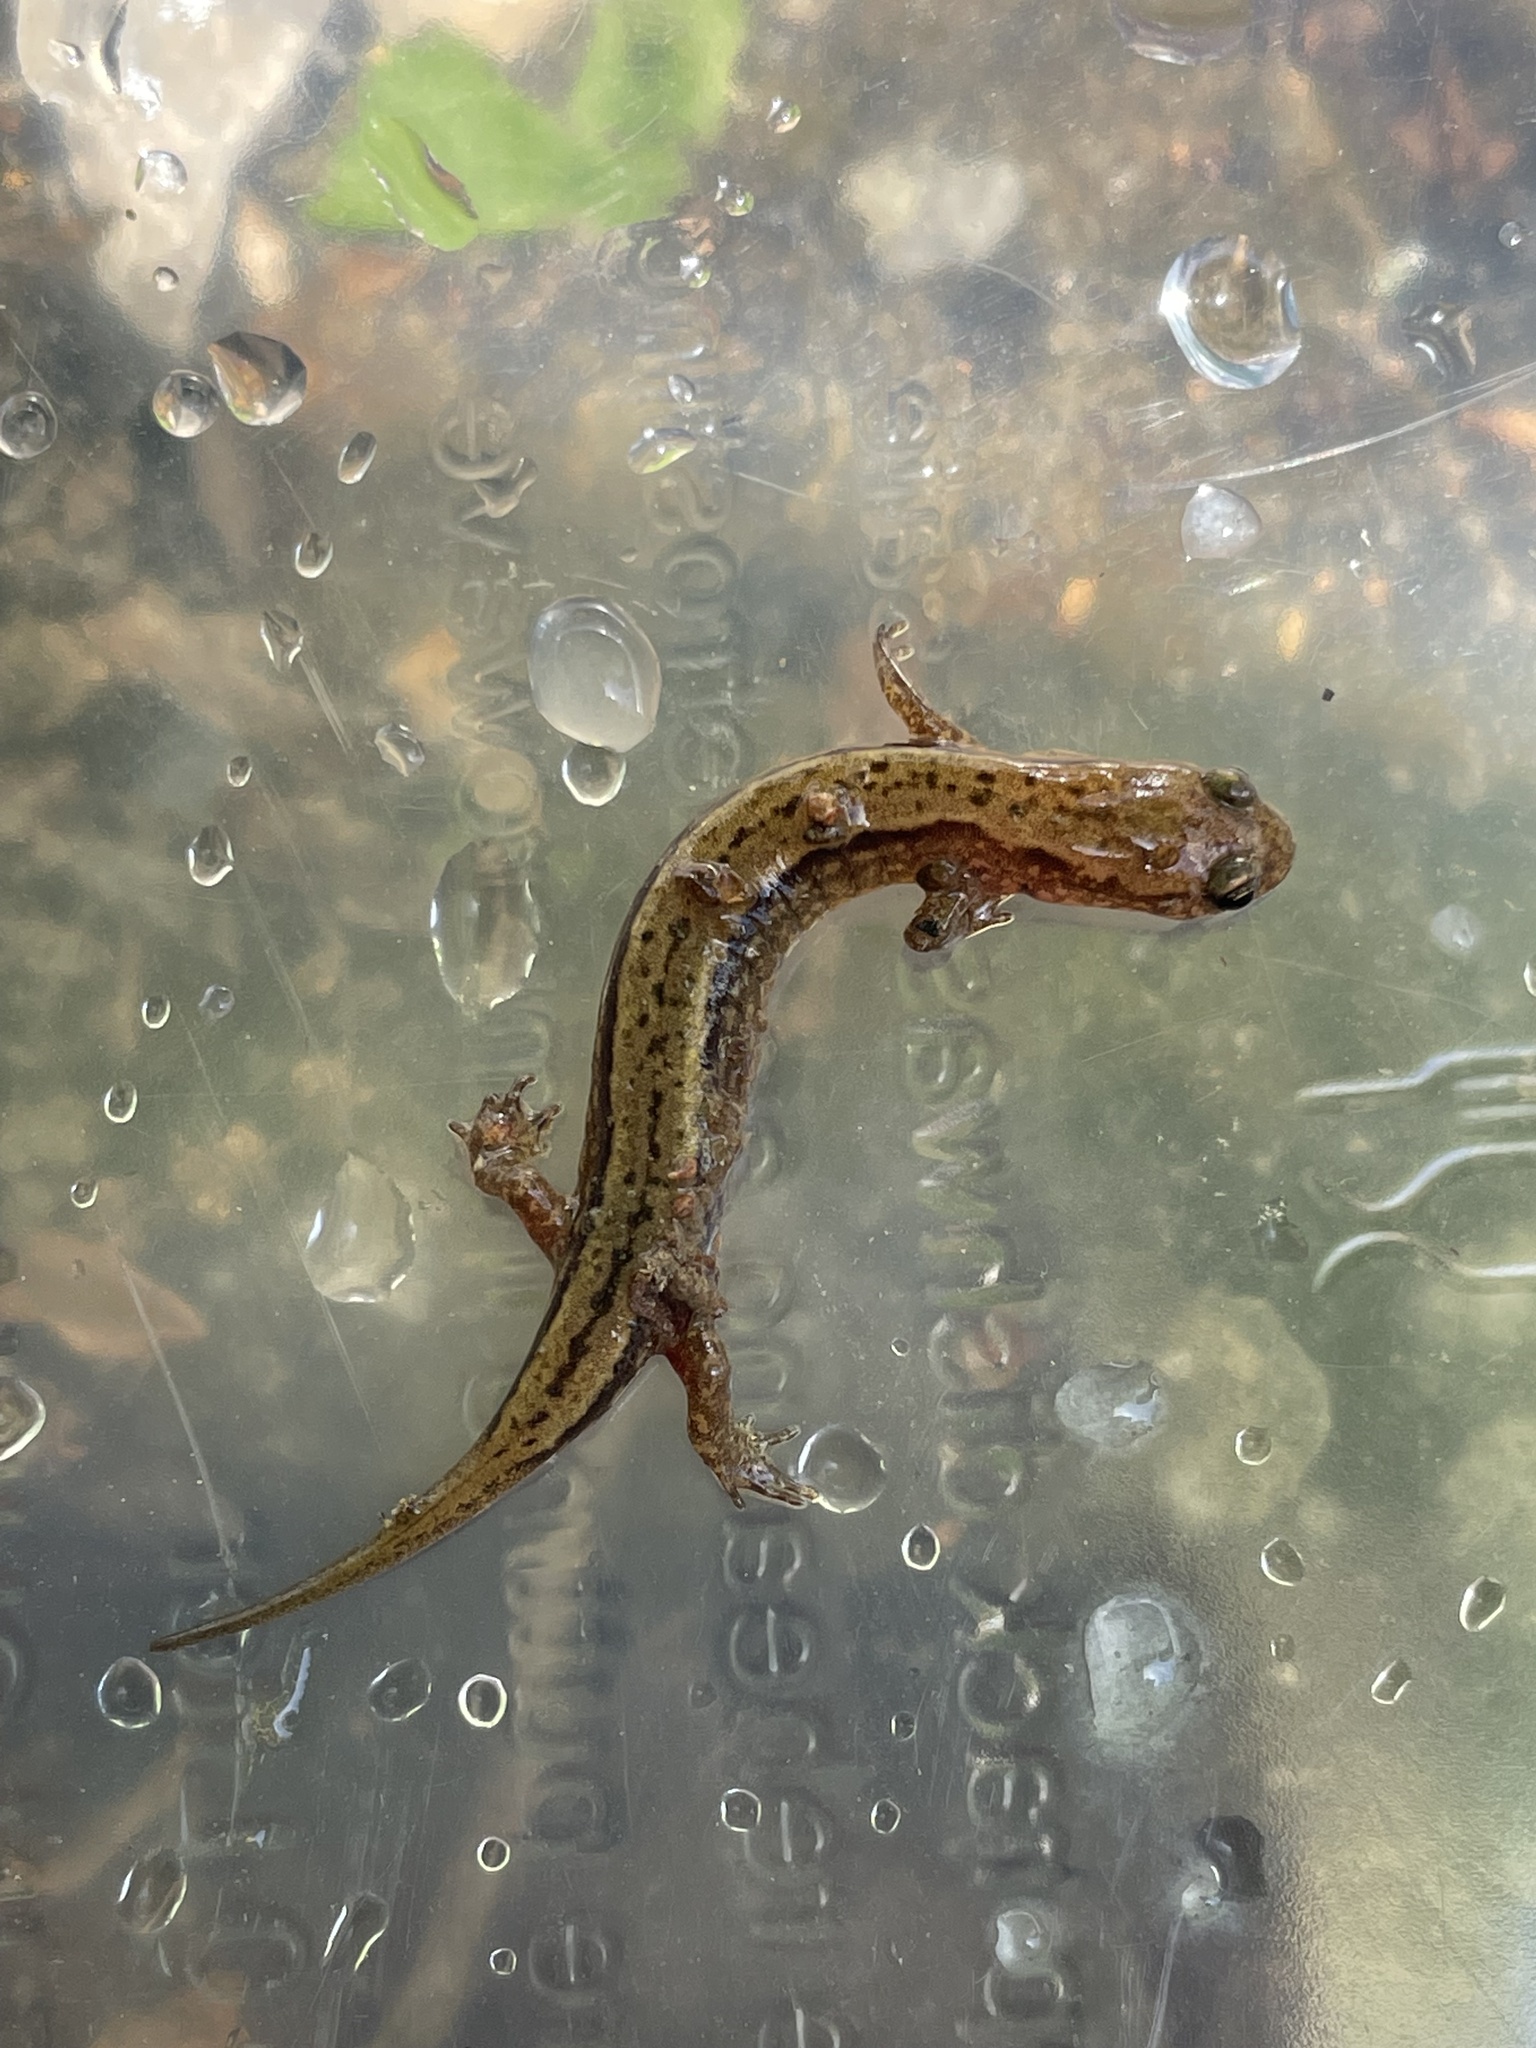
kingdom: Animalia
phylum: Chordata
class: Amphibia
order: Caudata
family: Plethodontidae
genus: Eurycea
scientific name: Eurycea cirrigera
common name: Southern two-lined salamander
